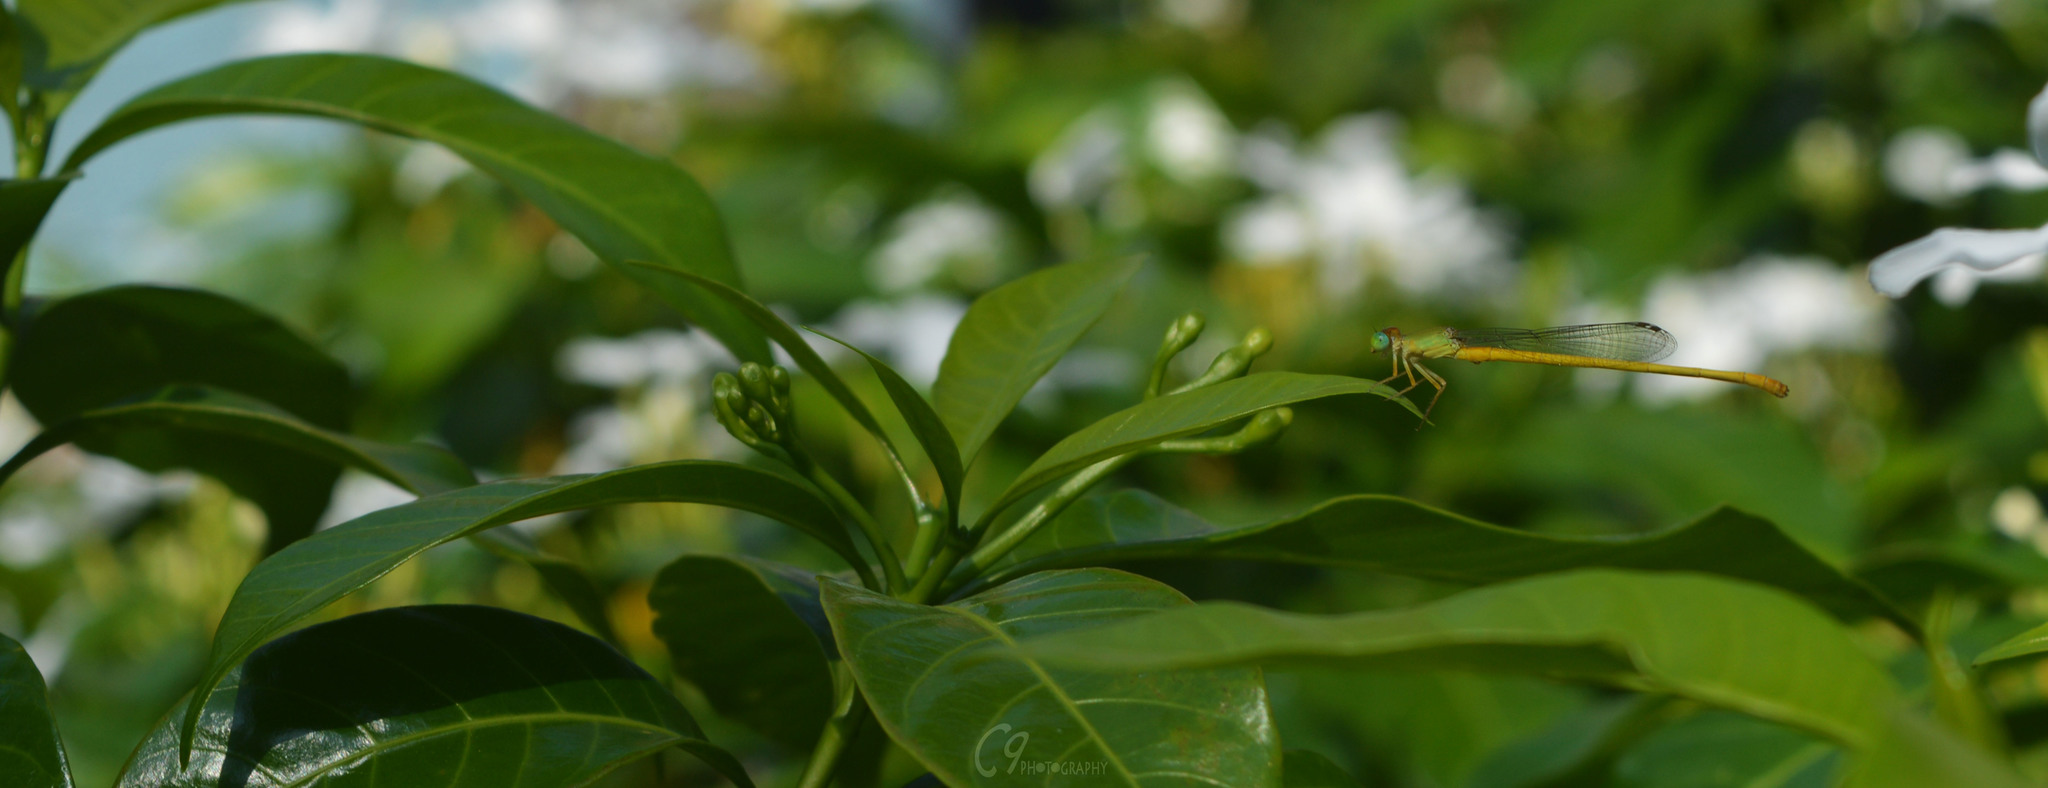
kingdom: Animalia
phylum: Arthropoda
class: Insecta
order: Odonata
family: Coenagrionidae
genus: Ceriagrion
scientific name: Ceriagrion coromandelianum
